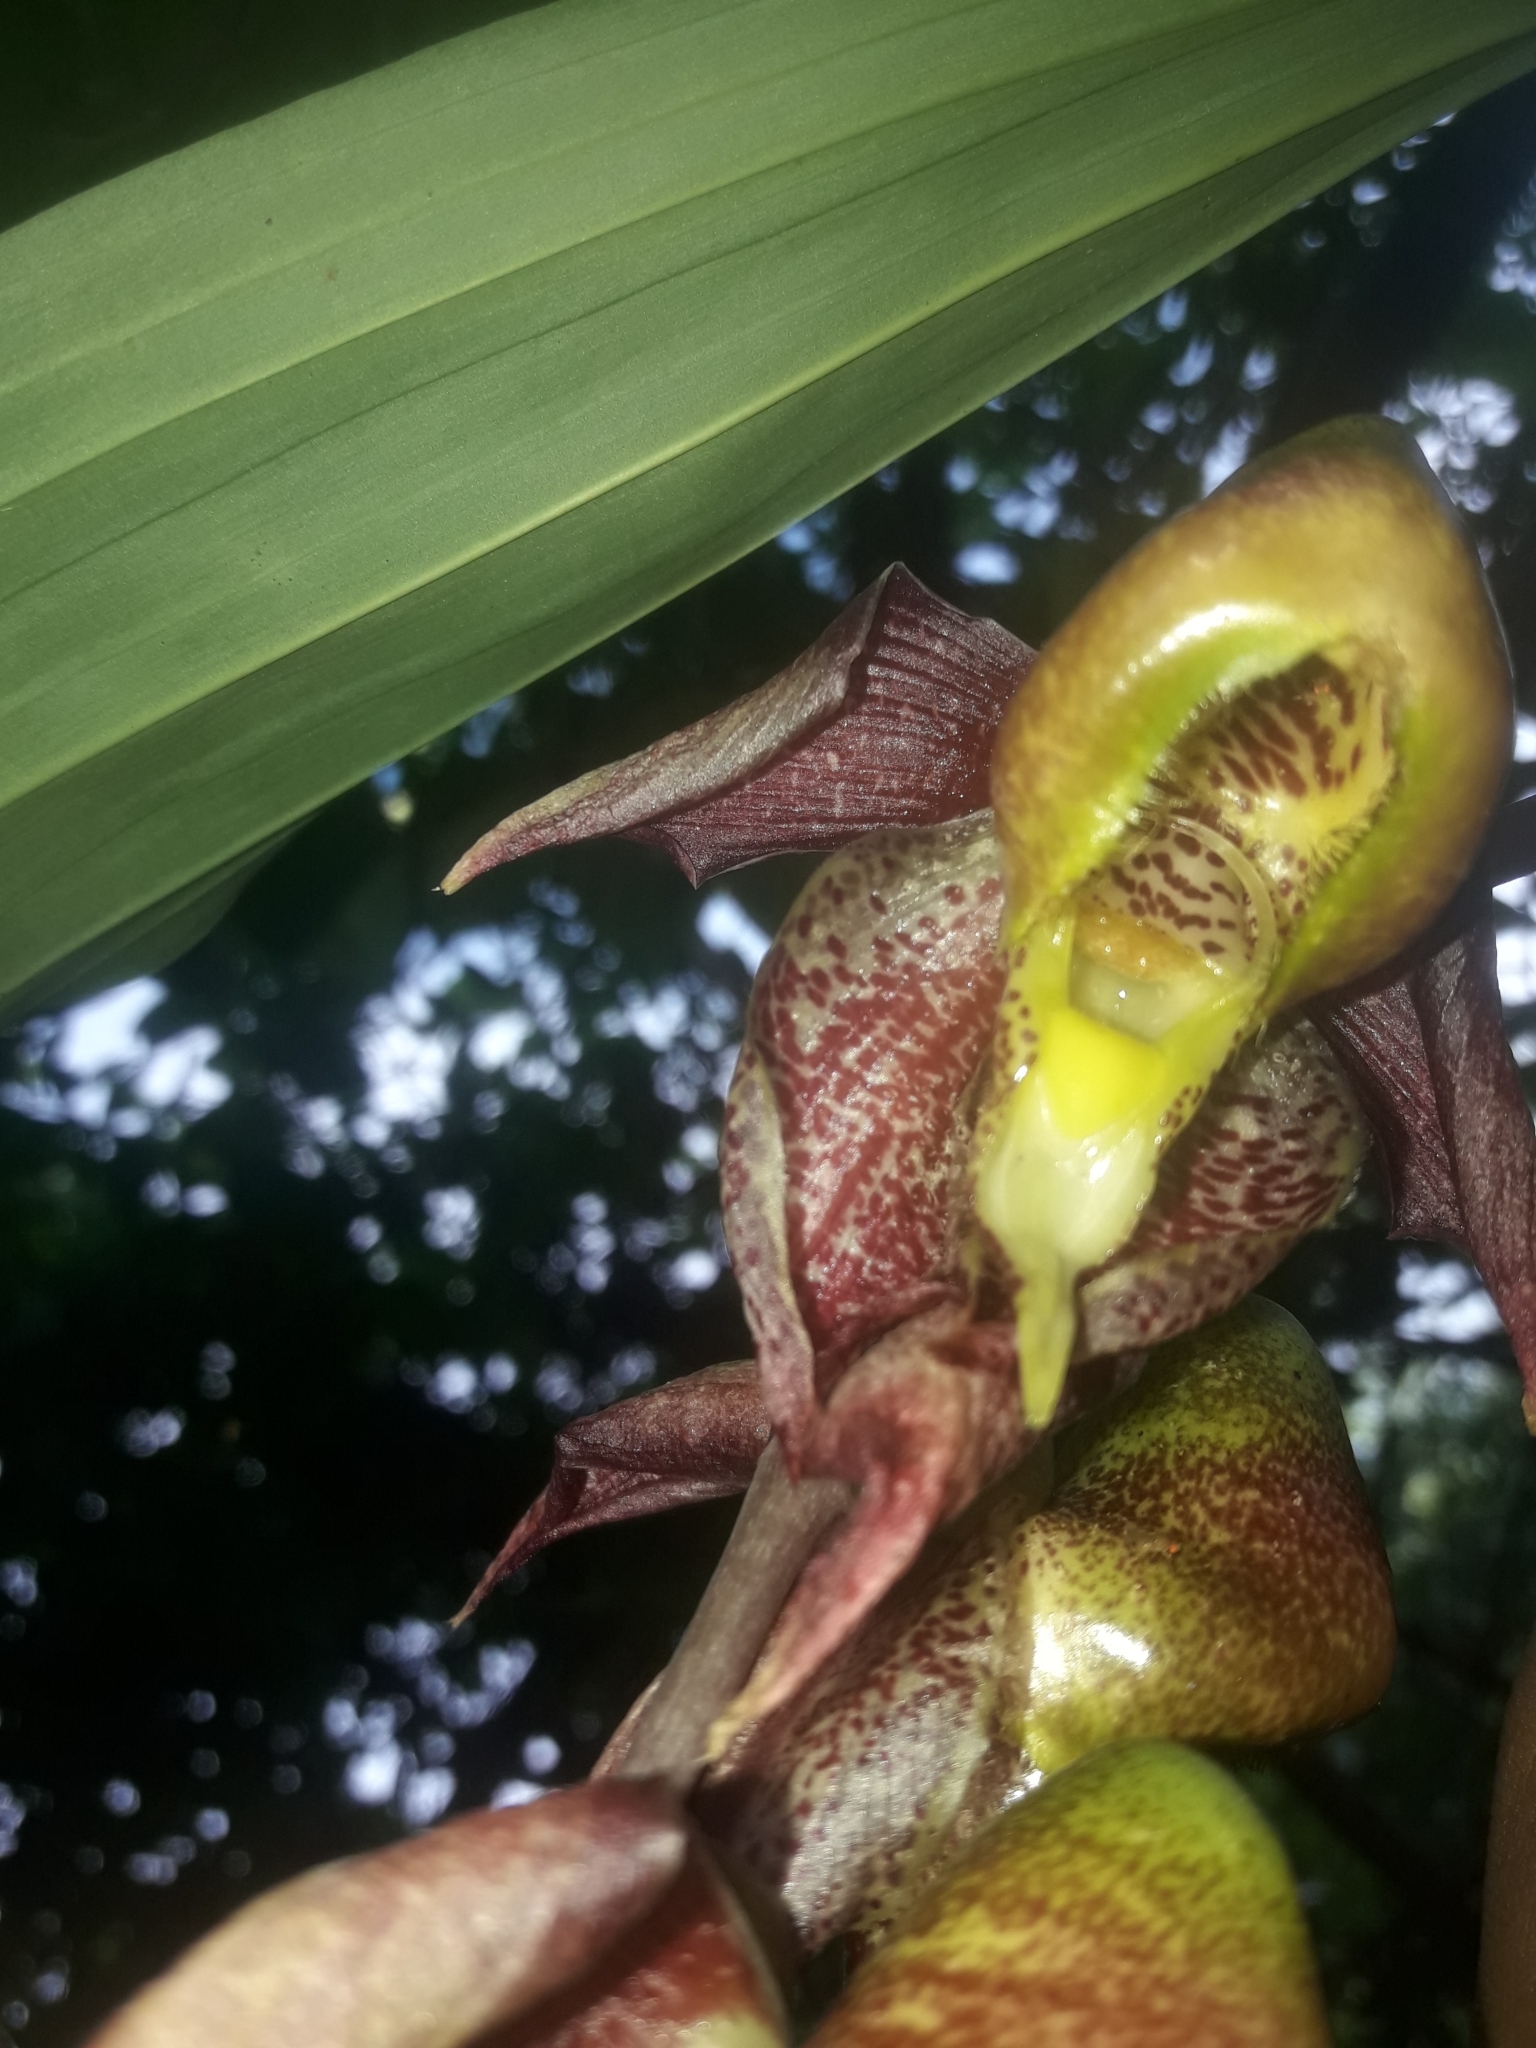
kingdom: Plantae
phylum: Tracheophyta
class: Liliopsida
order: Asparagales
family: Orchidaceae
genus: Catasetum
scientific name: Catasetum maculatum
